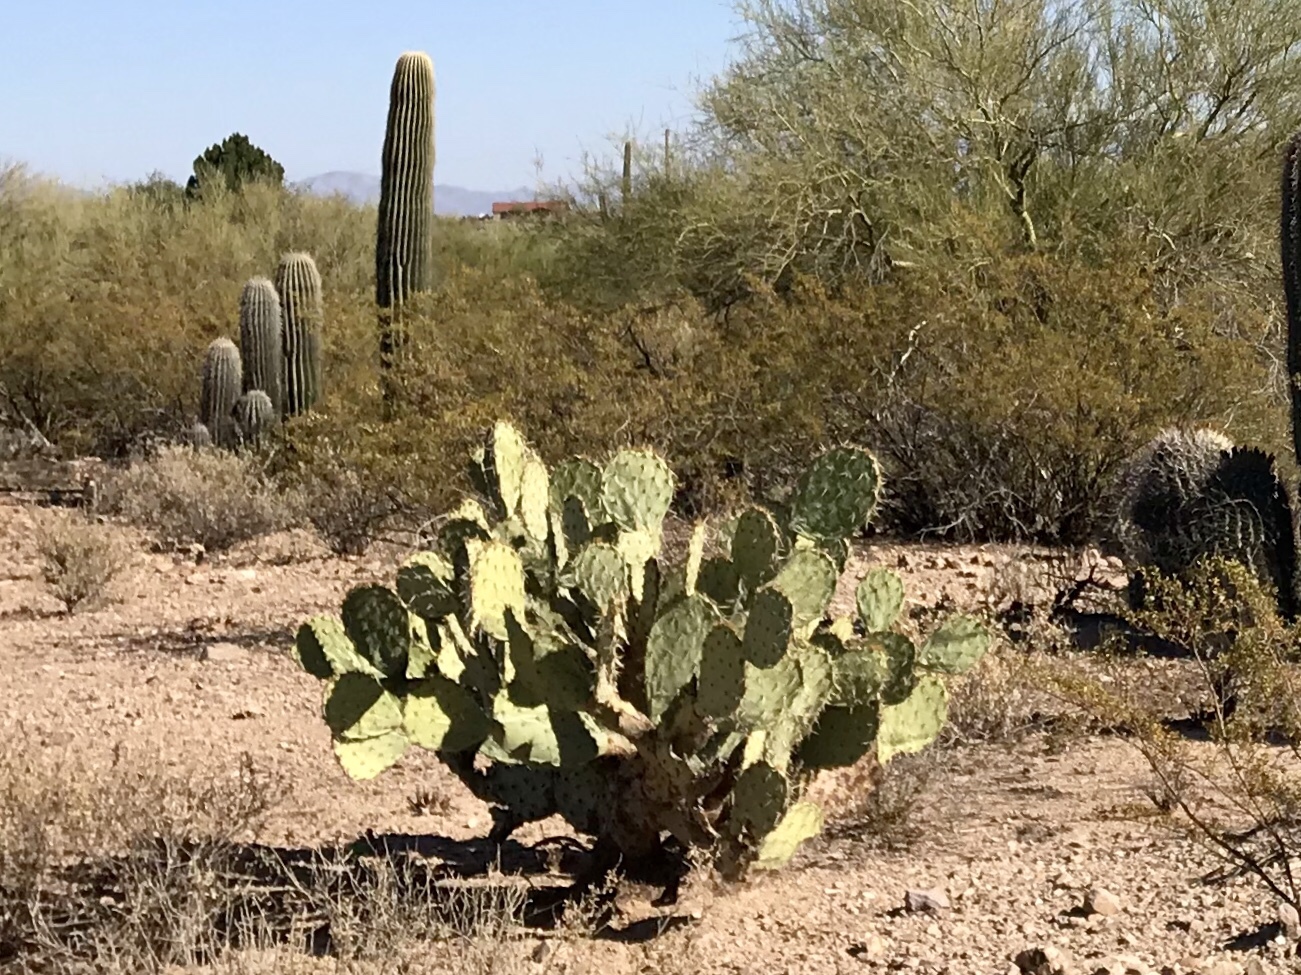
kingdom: Plantae
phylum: Tracheophyta
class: Magnoliopsida
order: Caryophyllales
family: Cactaceae
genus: Opuntia
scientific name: Opuntia engelmannii
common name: Cactus-apple
